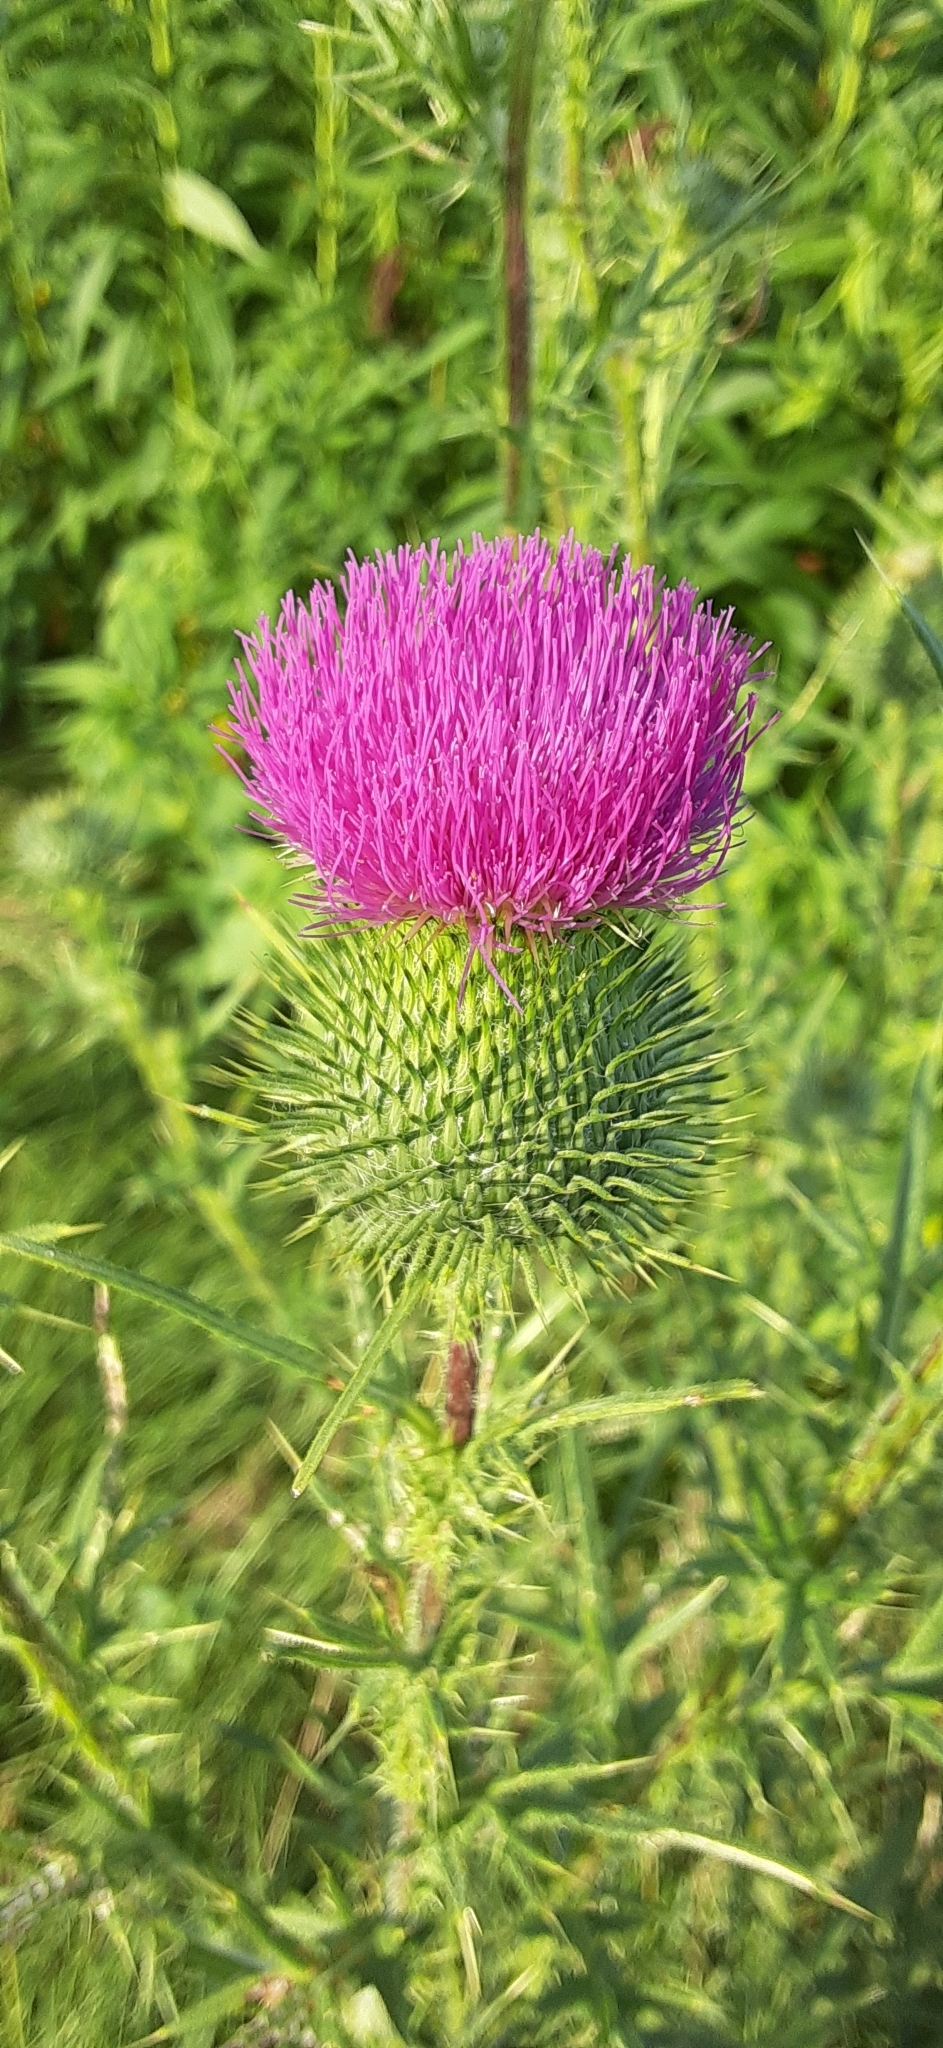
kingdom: Plantae
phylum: Tracheophyta
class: Magnoliopsida
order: Asterales
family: Asteraceae
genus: Cirsium
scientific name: Cirsium vulgare
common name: Bull thistle
